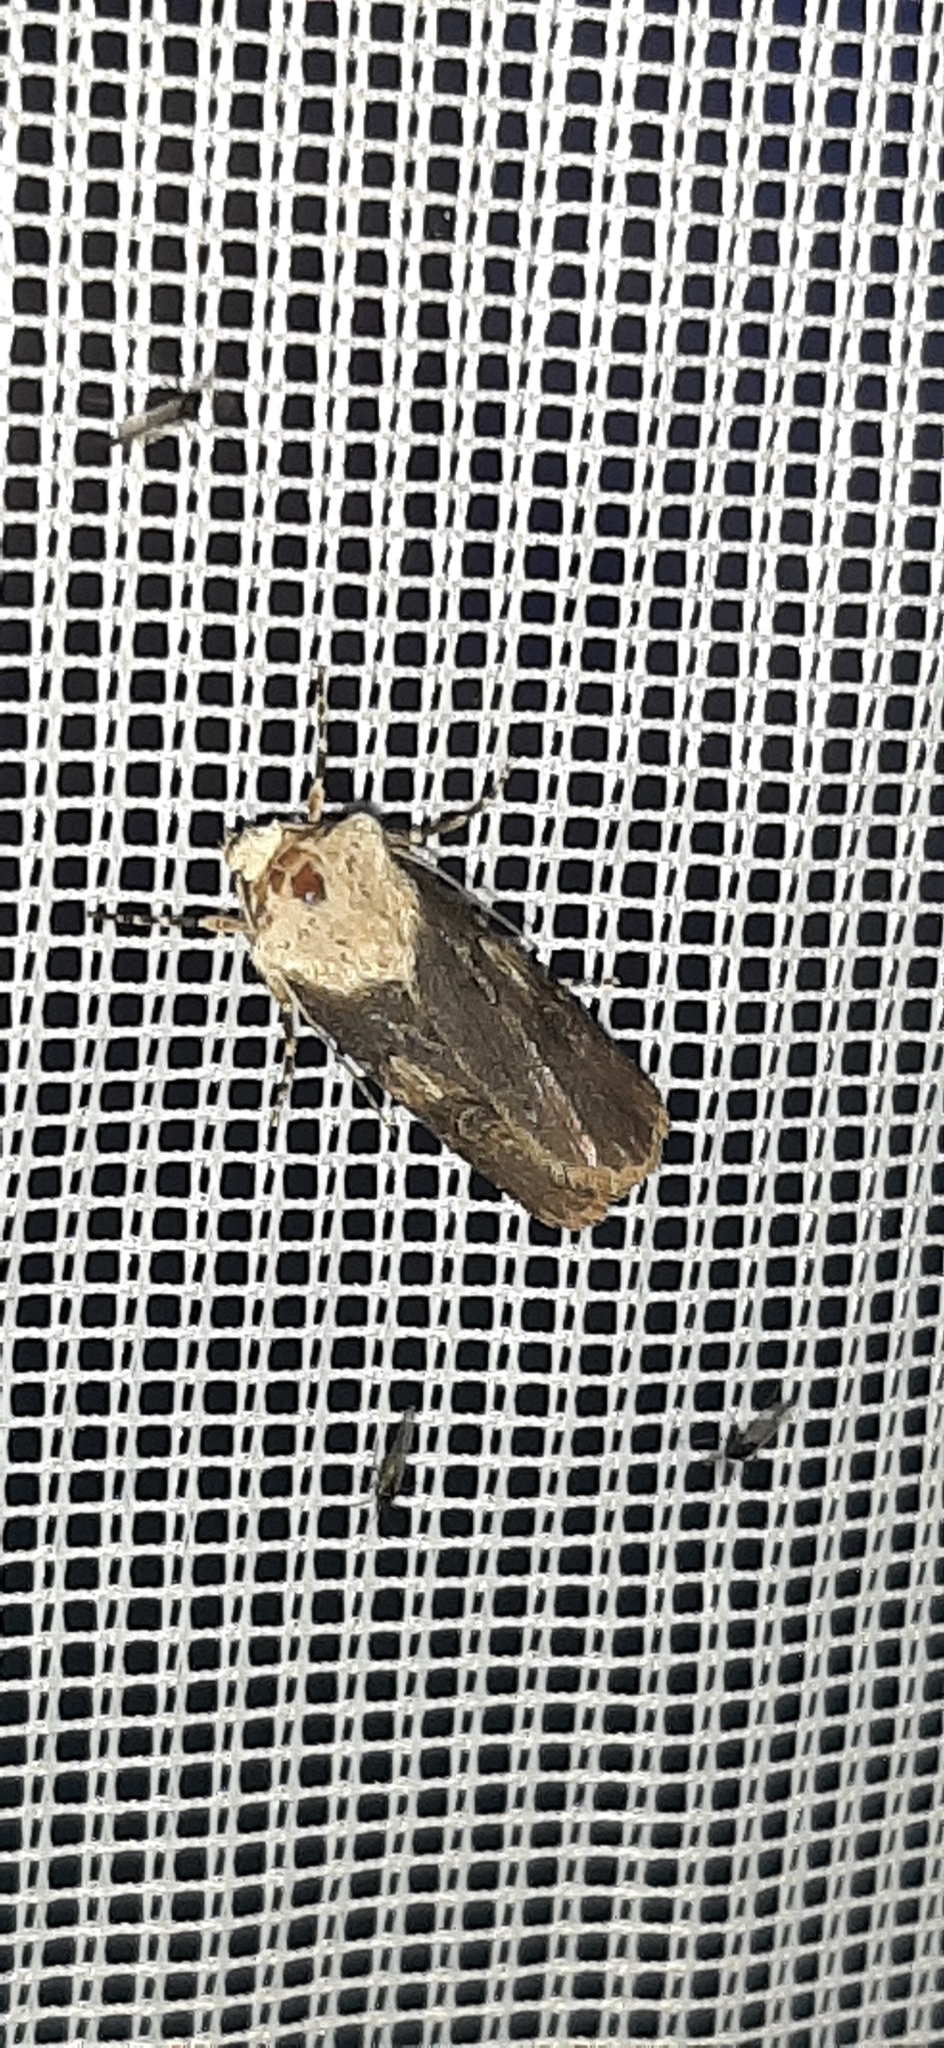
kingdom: Animalia
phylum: Arthropoda
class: Insecta
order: Lepidoptera
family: Noctuidae
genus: Agrotis
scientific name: Agrotis puta
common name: Shuttle-shaped dart
